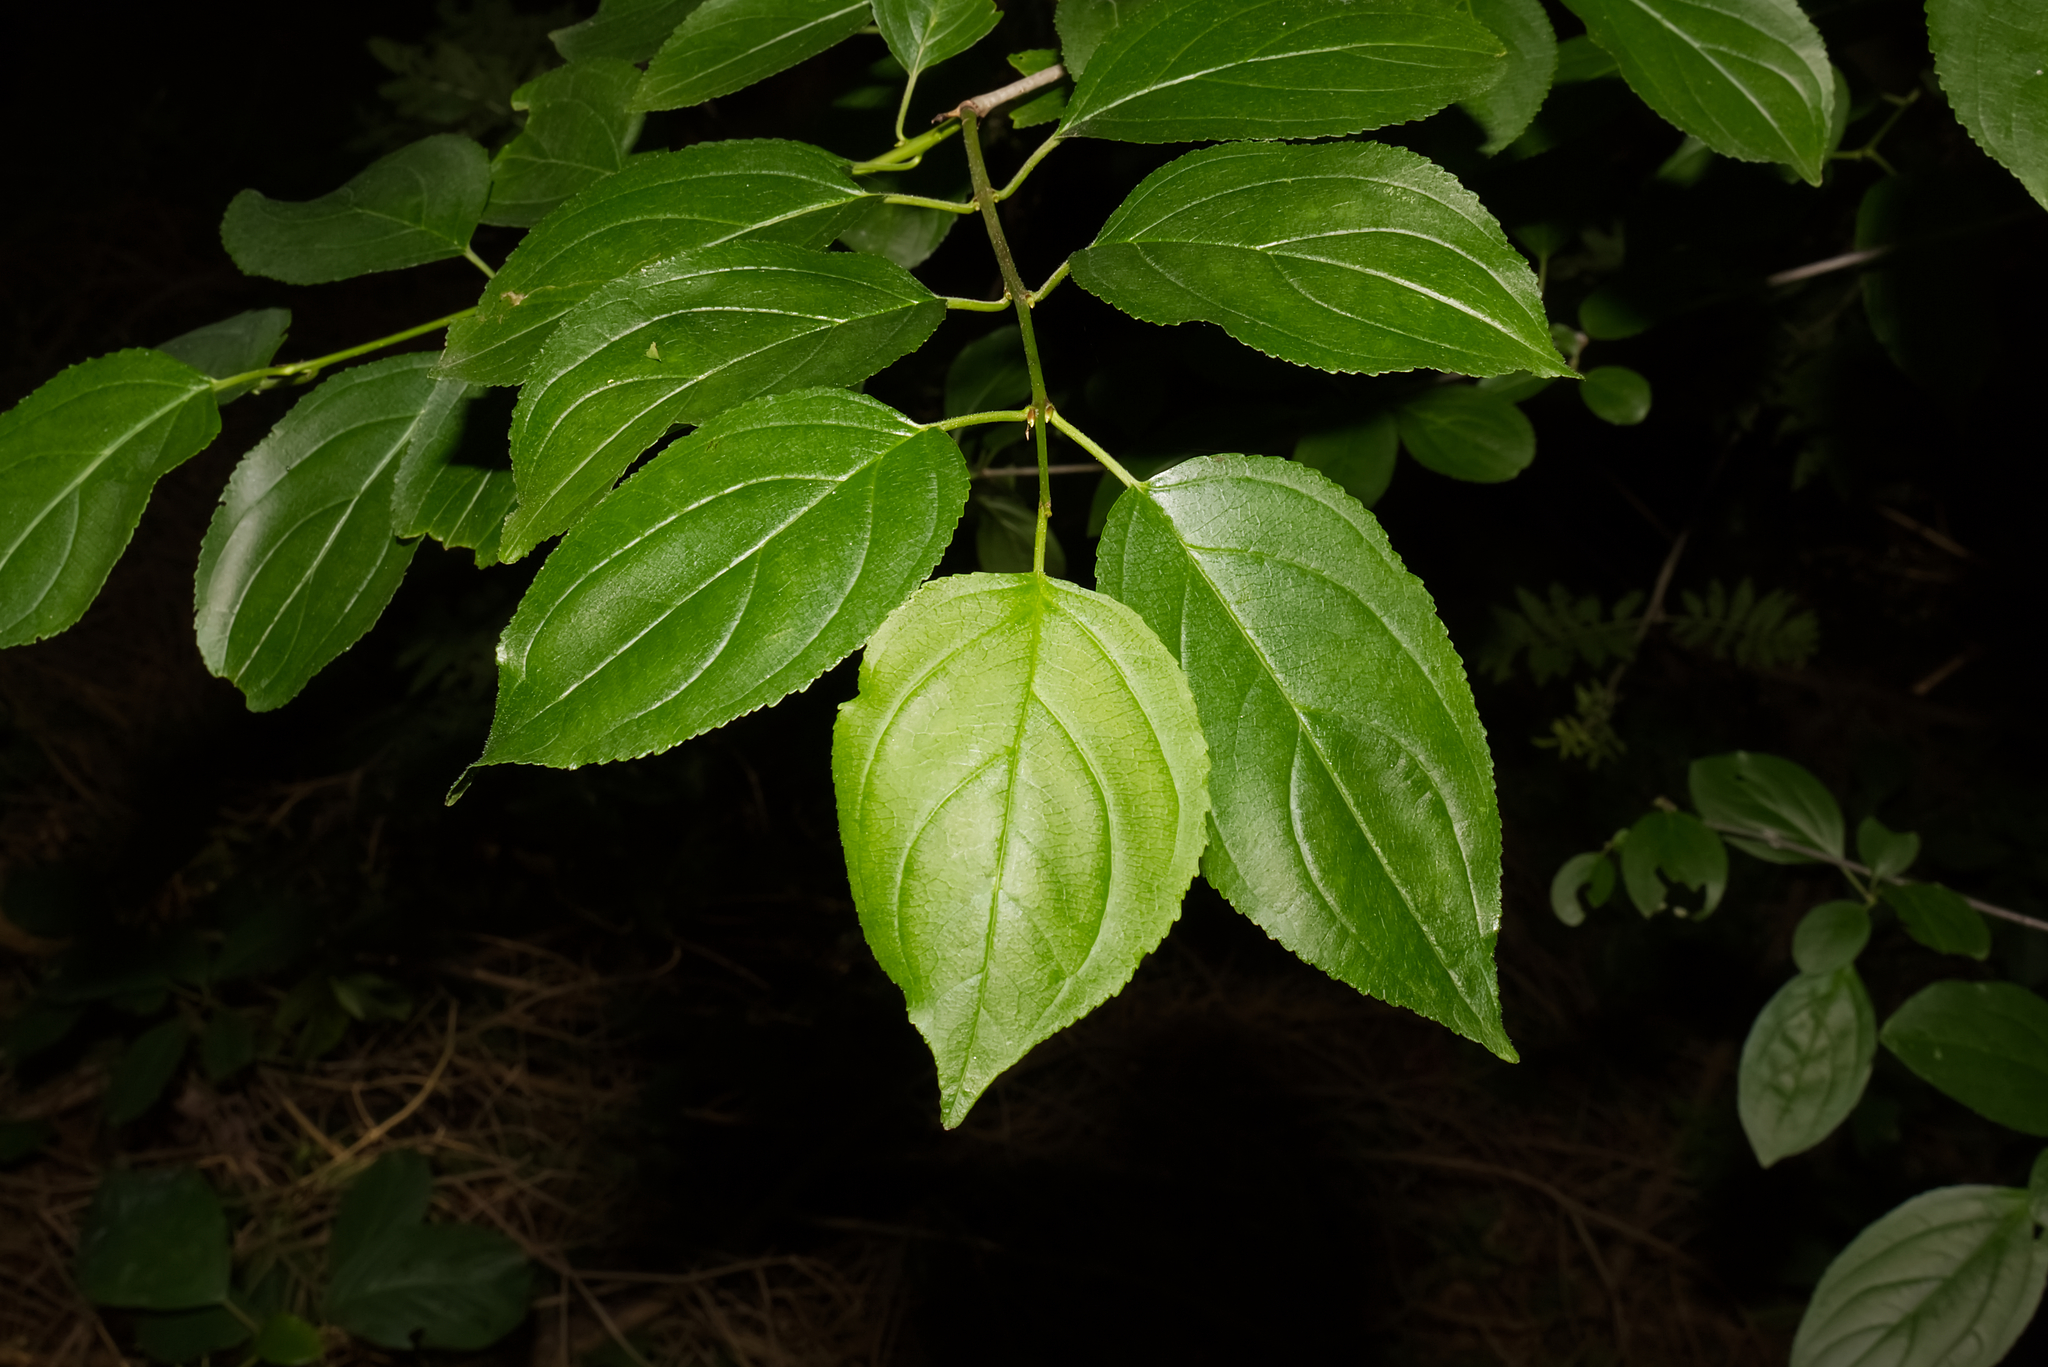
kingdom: Plantae
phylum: Tracheophyta
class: Magnoliopsida
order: Rosales
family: Rhamnaceae
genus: Rhamnus
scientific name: Rhamnus cathartica
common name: Common buckthorn
